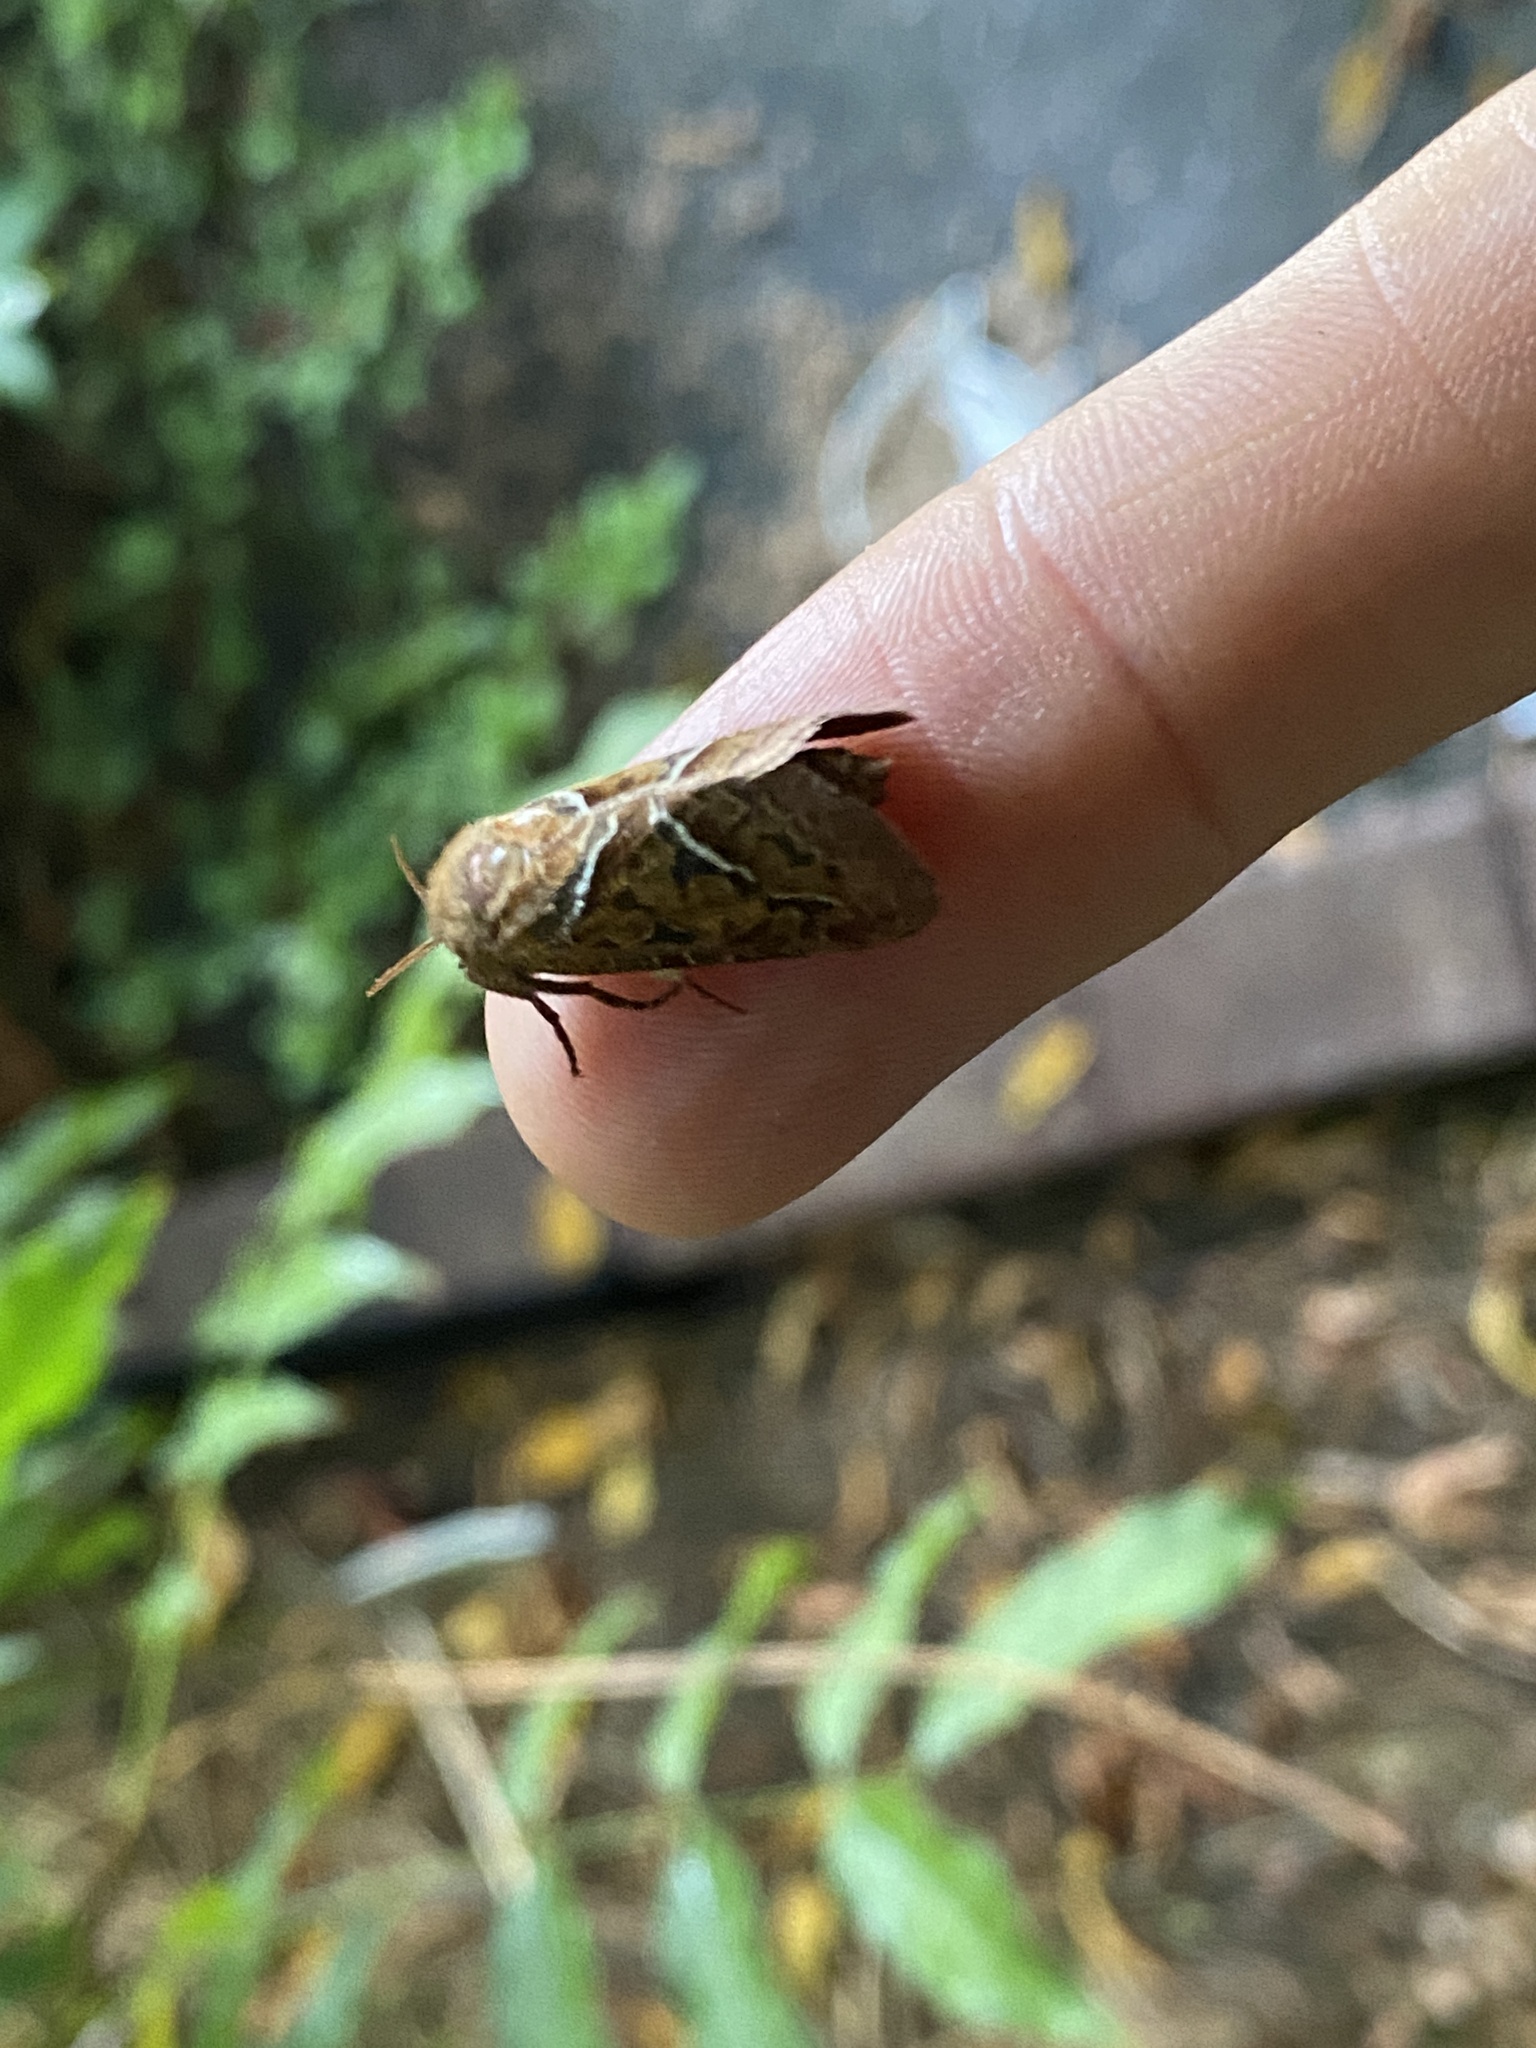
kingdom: Animalia
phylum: Arthropoda
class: Insecta
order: Lepidoptera
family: Hepialidae
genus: Triodia
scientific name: Triodia sylvina
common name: Orange swift
